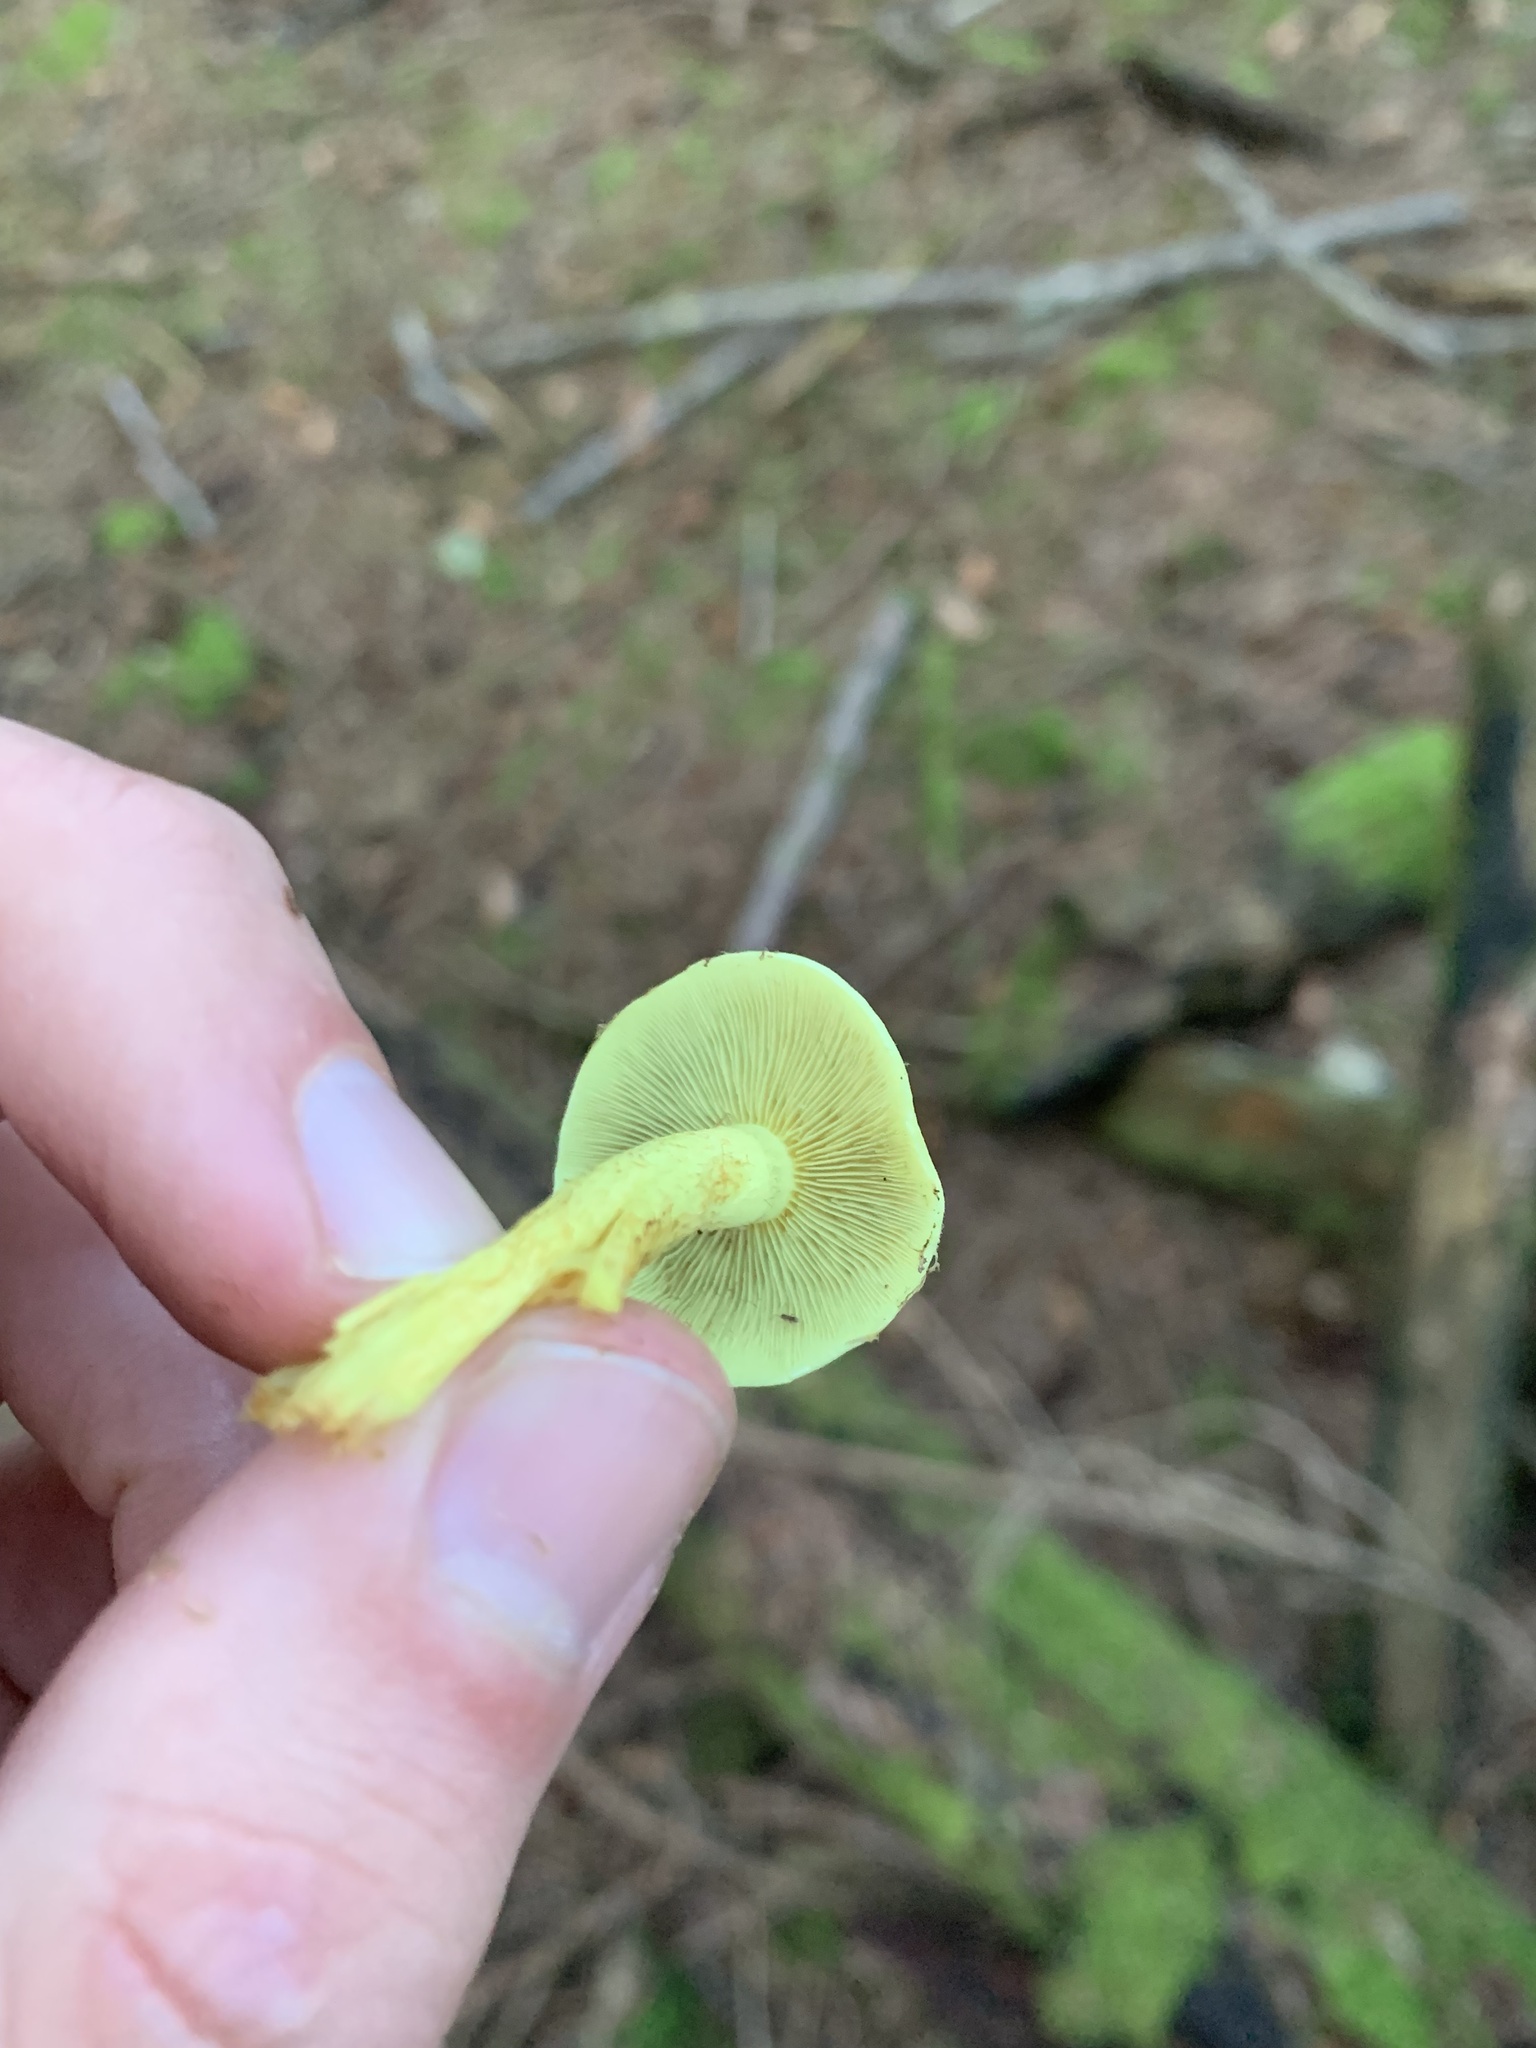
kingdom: Fungi
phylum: Basidiomycota
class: Agaricomycetes
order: Agaricales
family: Strophariaceae
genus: Hypholoma
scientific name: Hypholoma fasciculare
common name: Sulphur tuft
